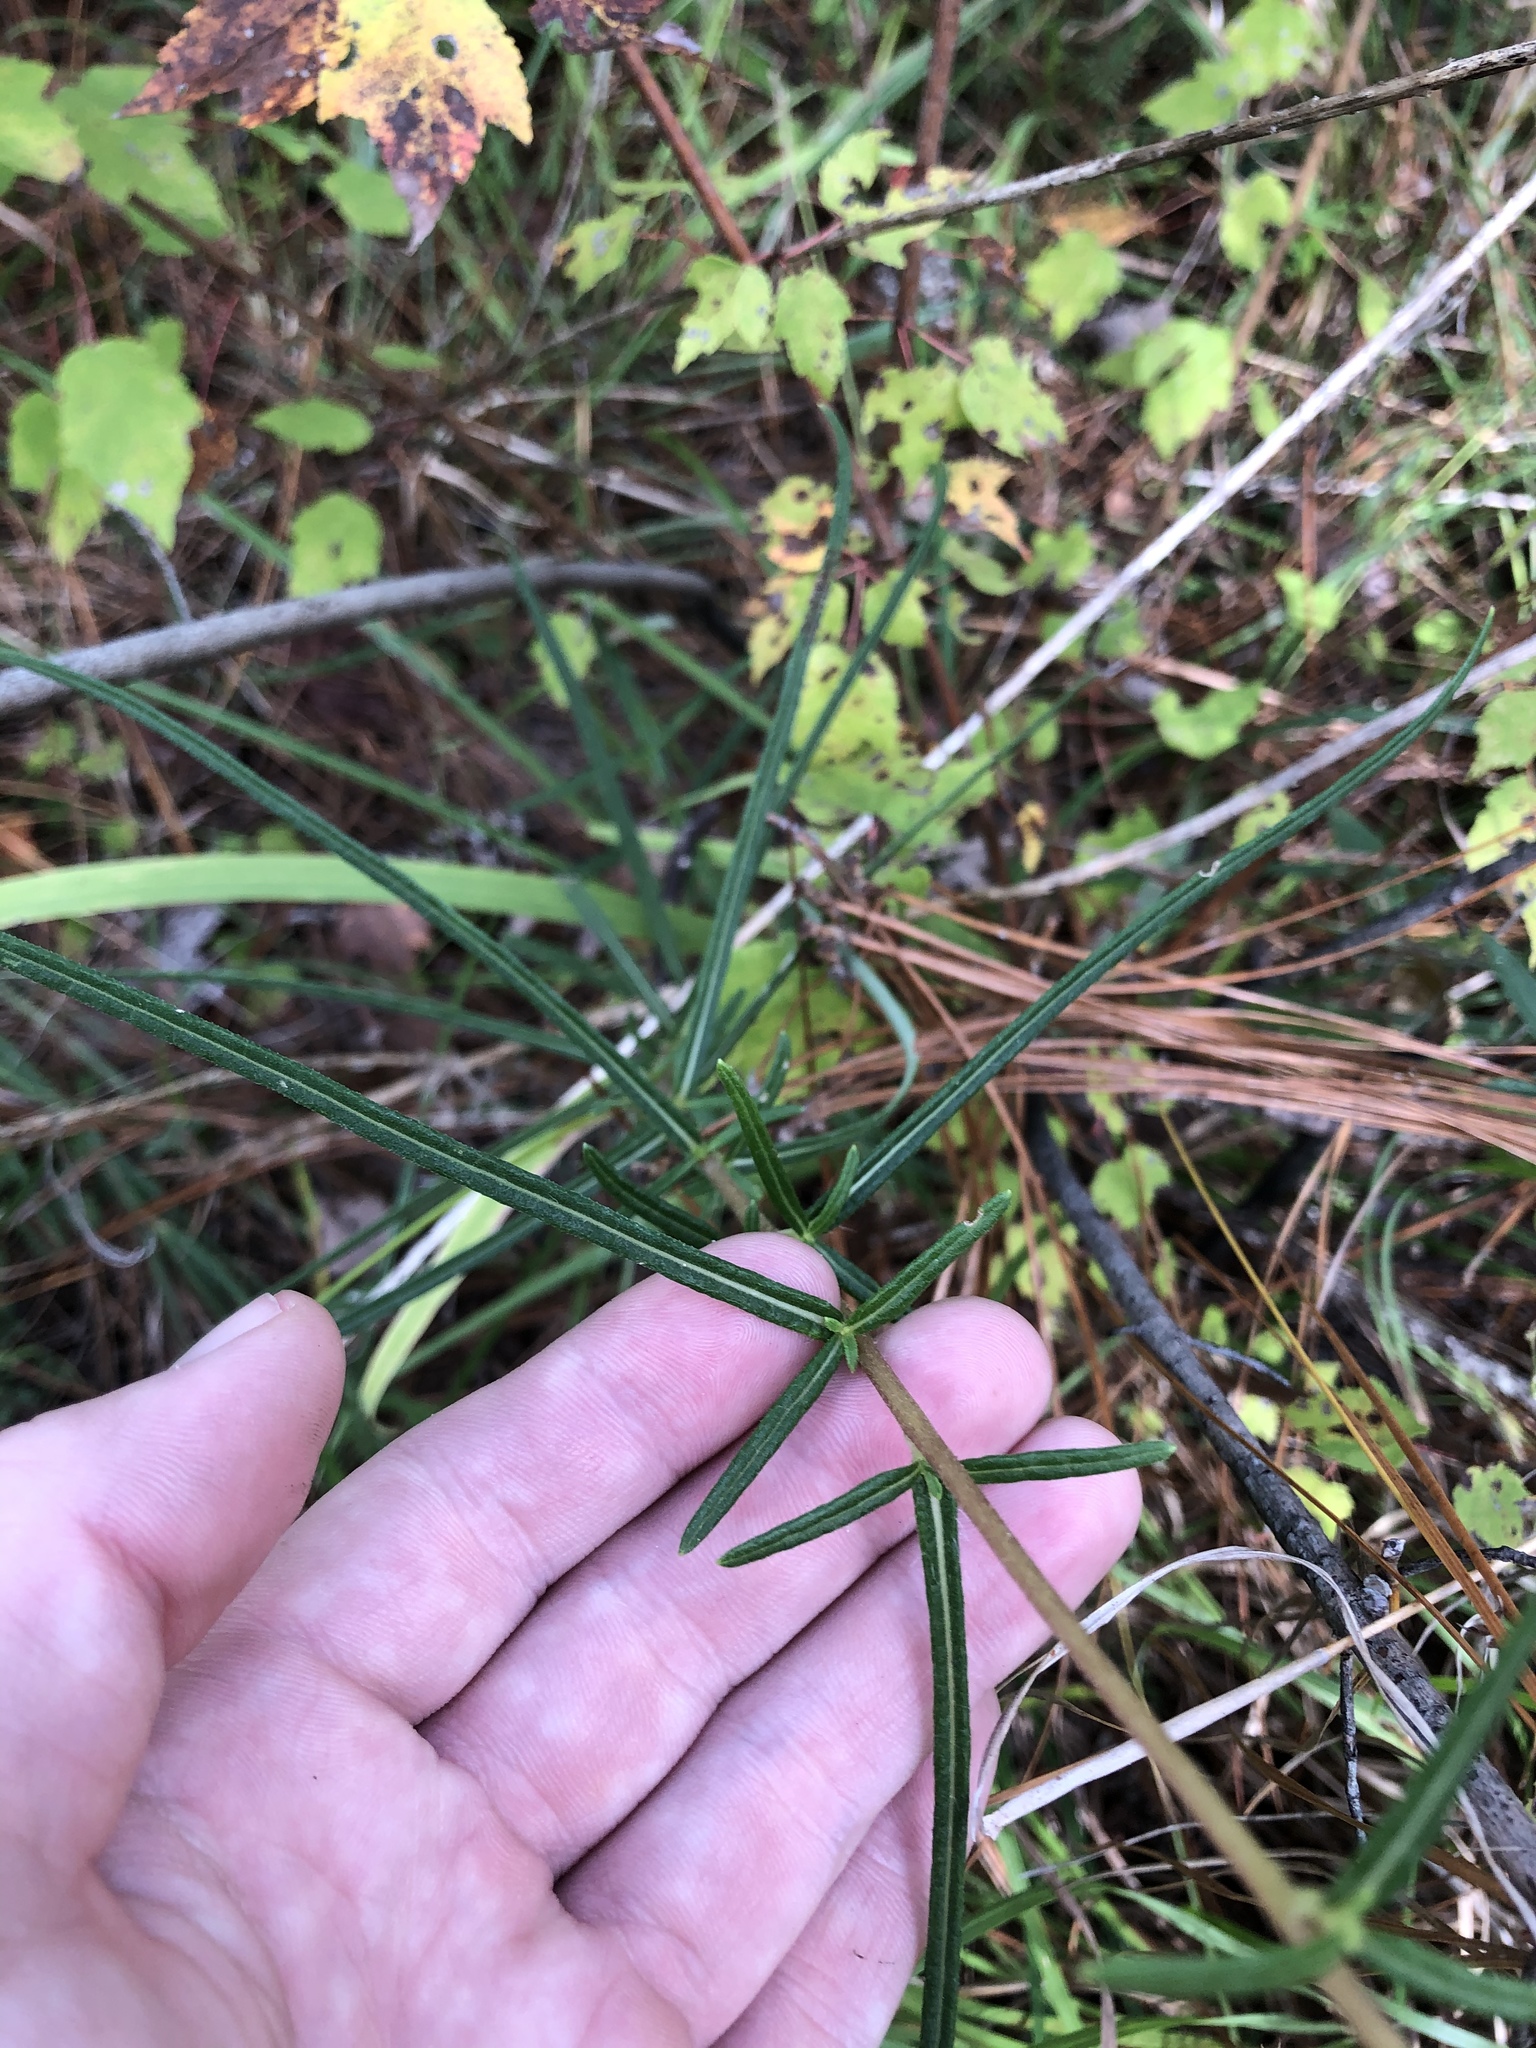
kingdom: Plantae
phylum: Tracheophyta
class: Magnoliopsida
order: Asterales
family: Asteraceae
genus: Helianthus
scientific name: Helianthus angustifolius
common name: Swamp sunflower
